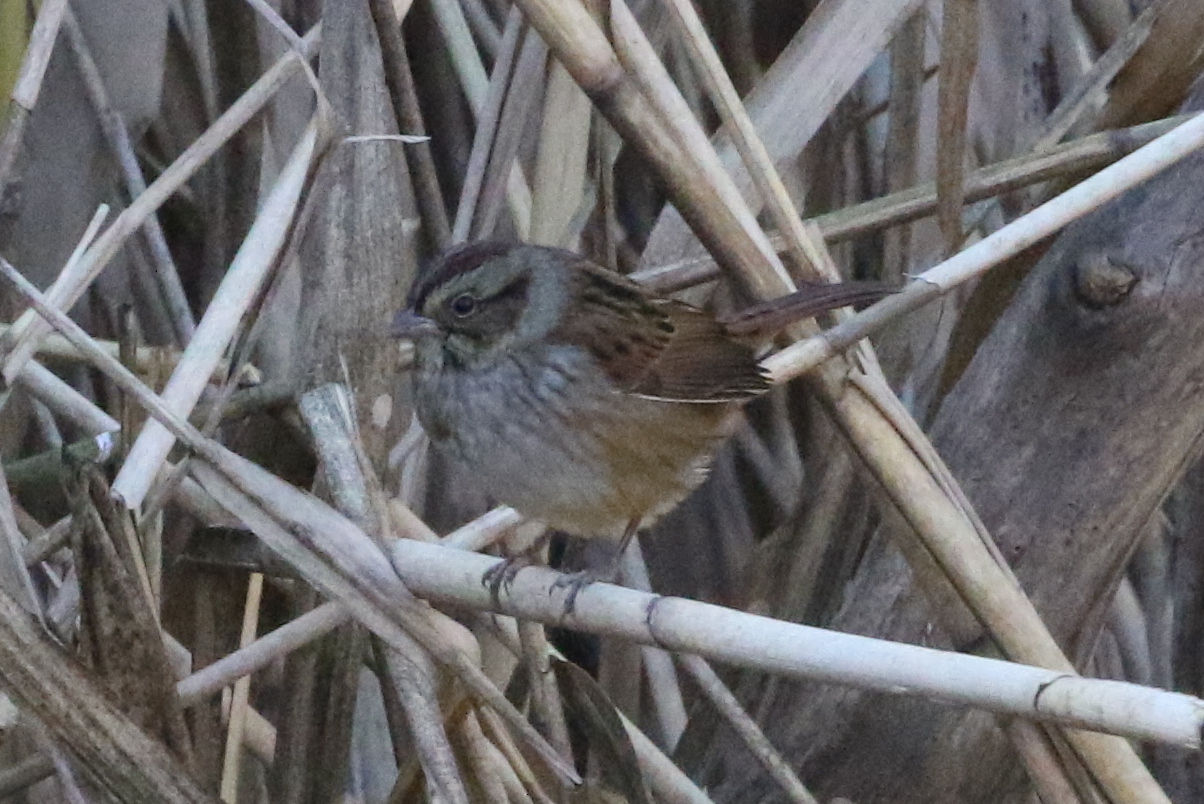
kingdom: Animalia
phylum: Chordata
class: Aves
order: Passeriformes
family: Passerellidae
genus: Melospiza
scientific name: Melospiza georgiana
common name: Swamp sparrow
